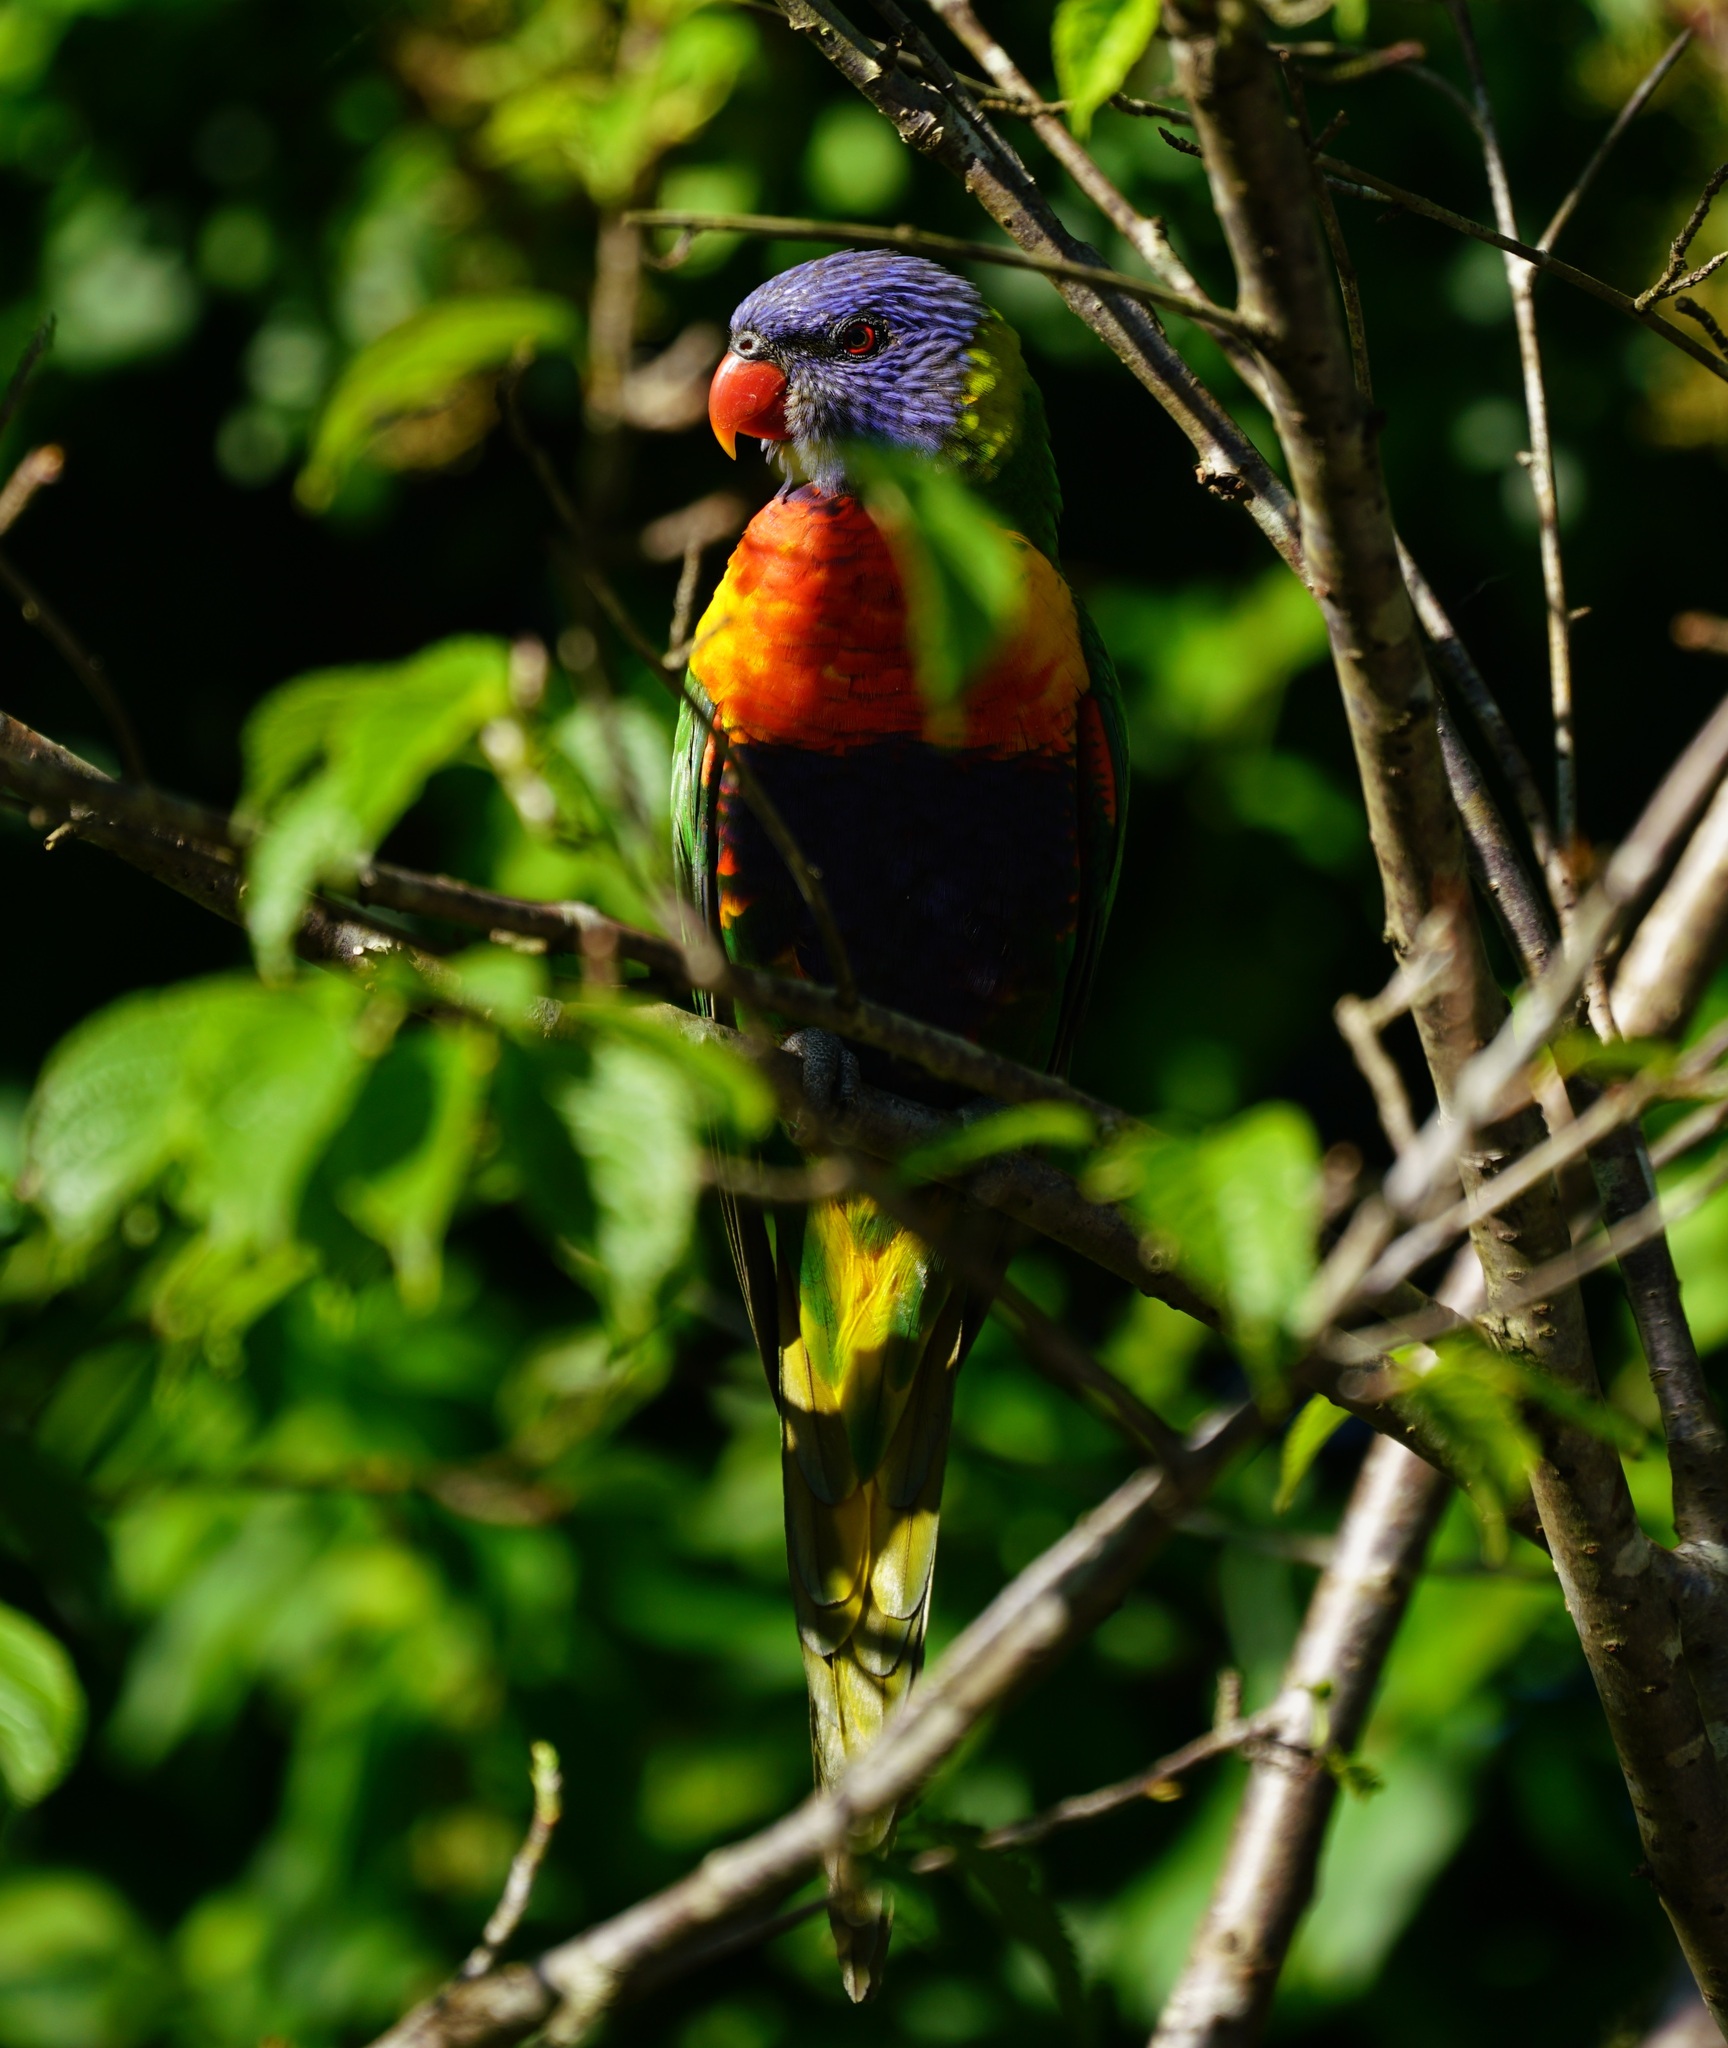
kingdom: Animalia
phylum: Chordata
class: Aves
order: Psittaciformes
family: Psittacidae
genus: Trichoglossus
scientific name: Trichoglossus haematodus
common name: Coconut lorikeet
